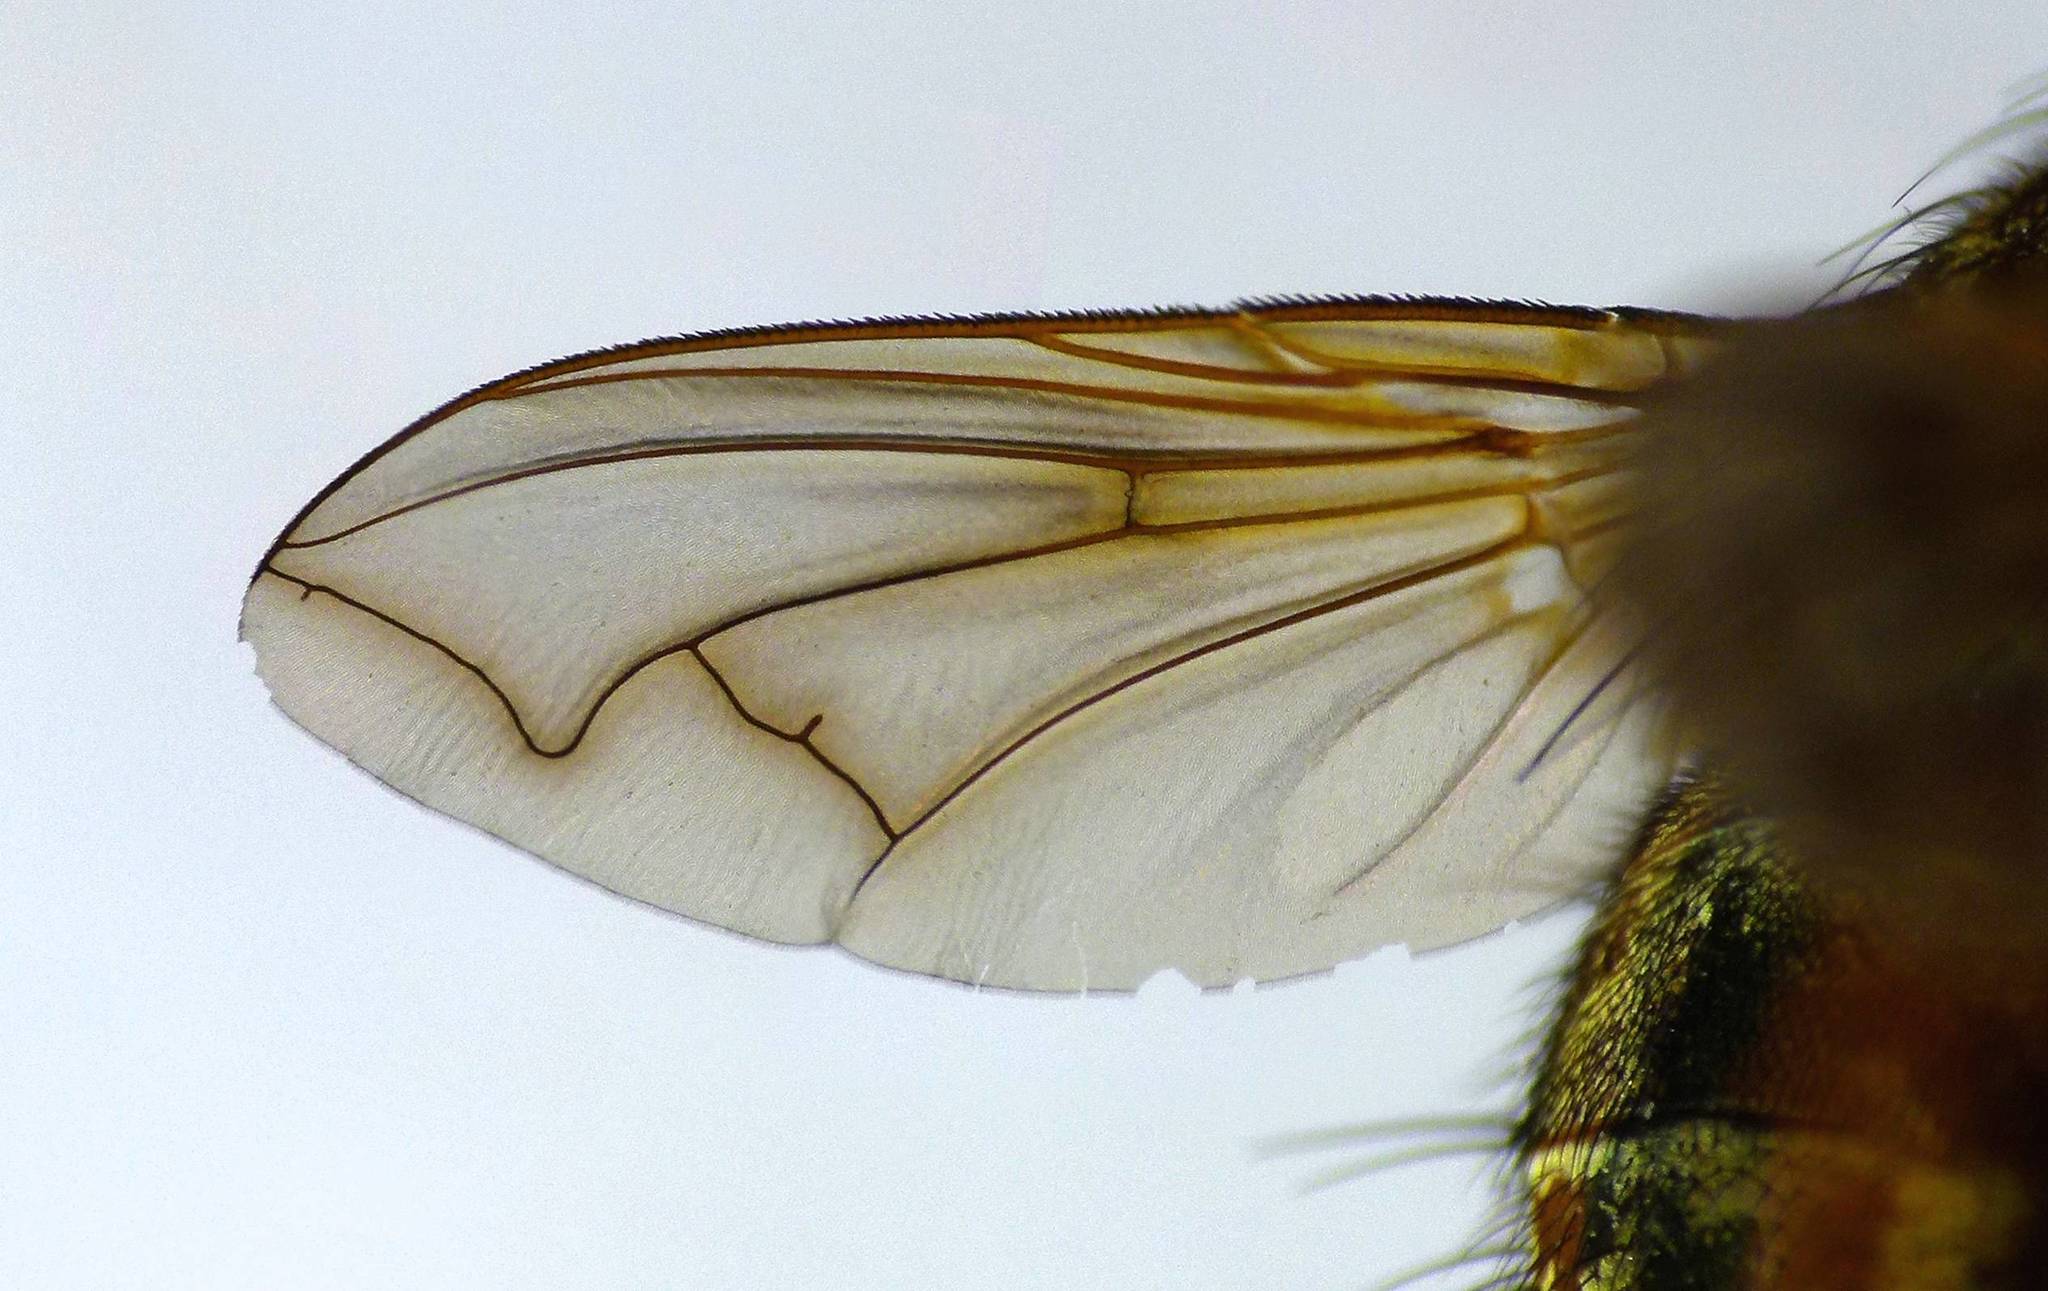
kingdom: Animalia
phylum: Arthropoda
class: Insecta
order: Diptera
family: Tachinidae
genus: Peremptor
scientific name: Peremptor kumaraensis
